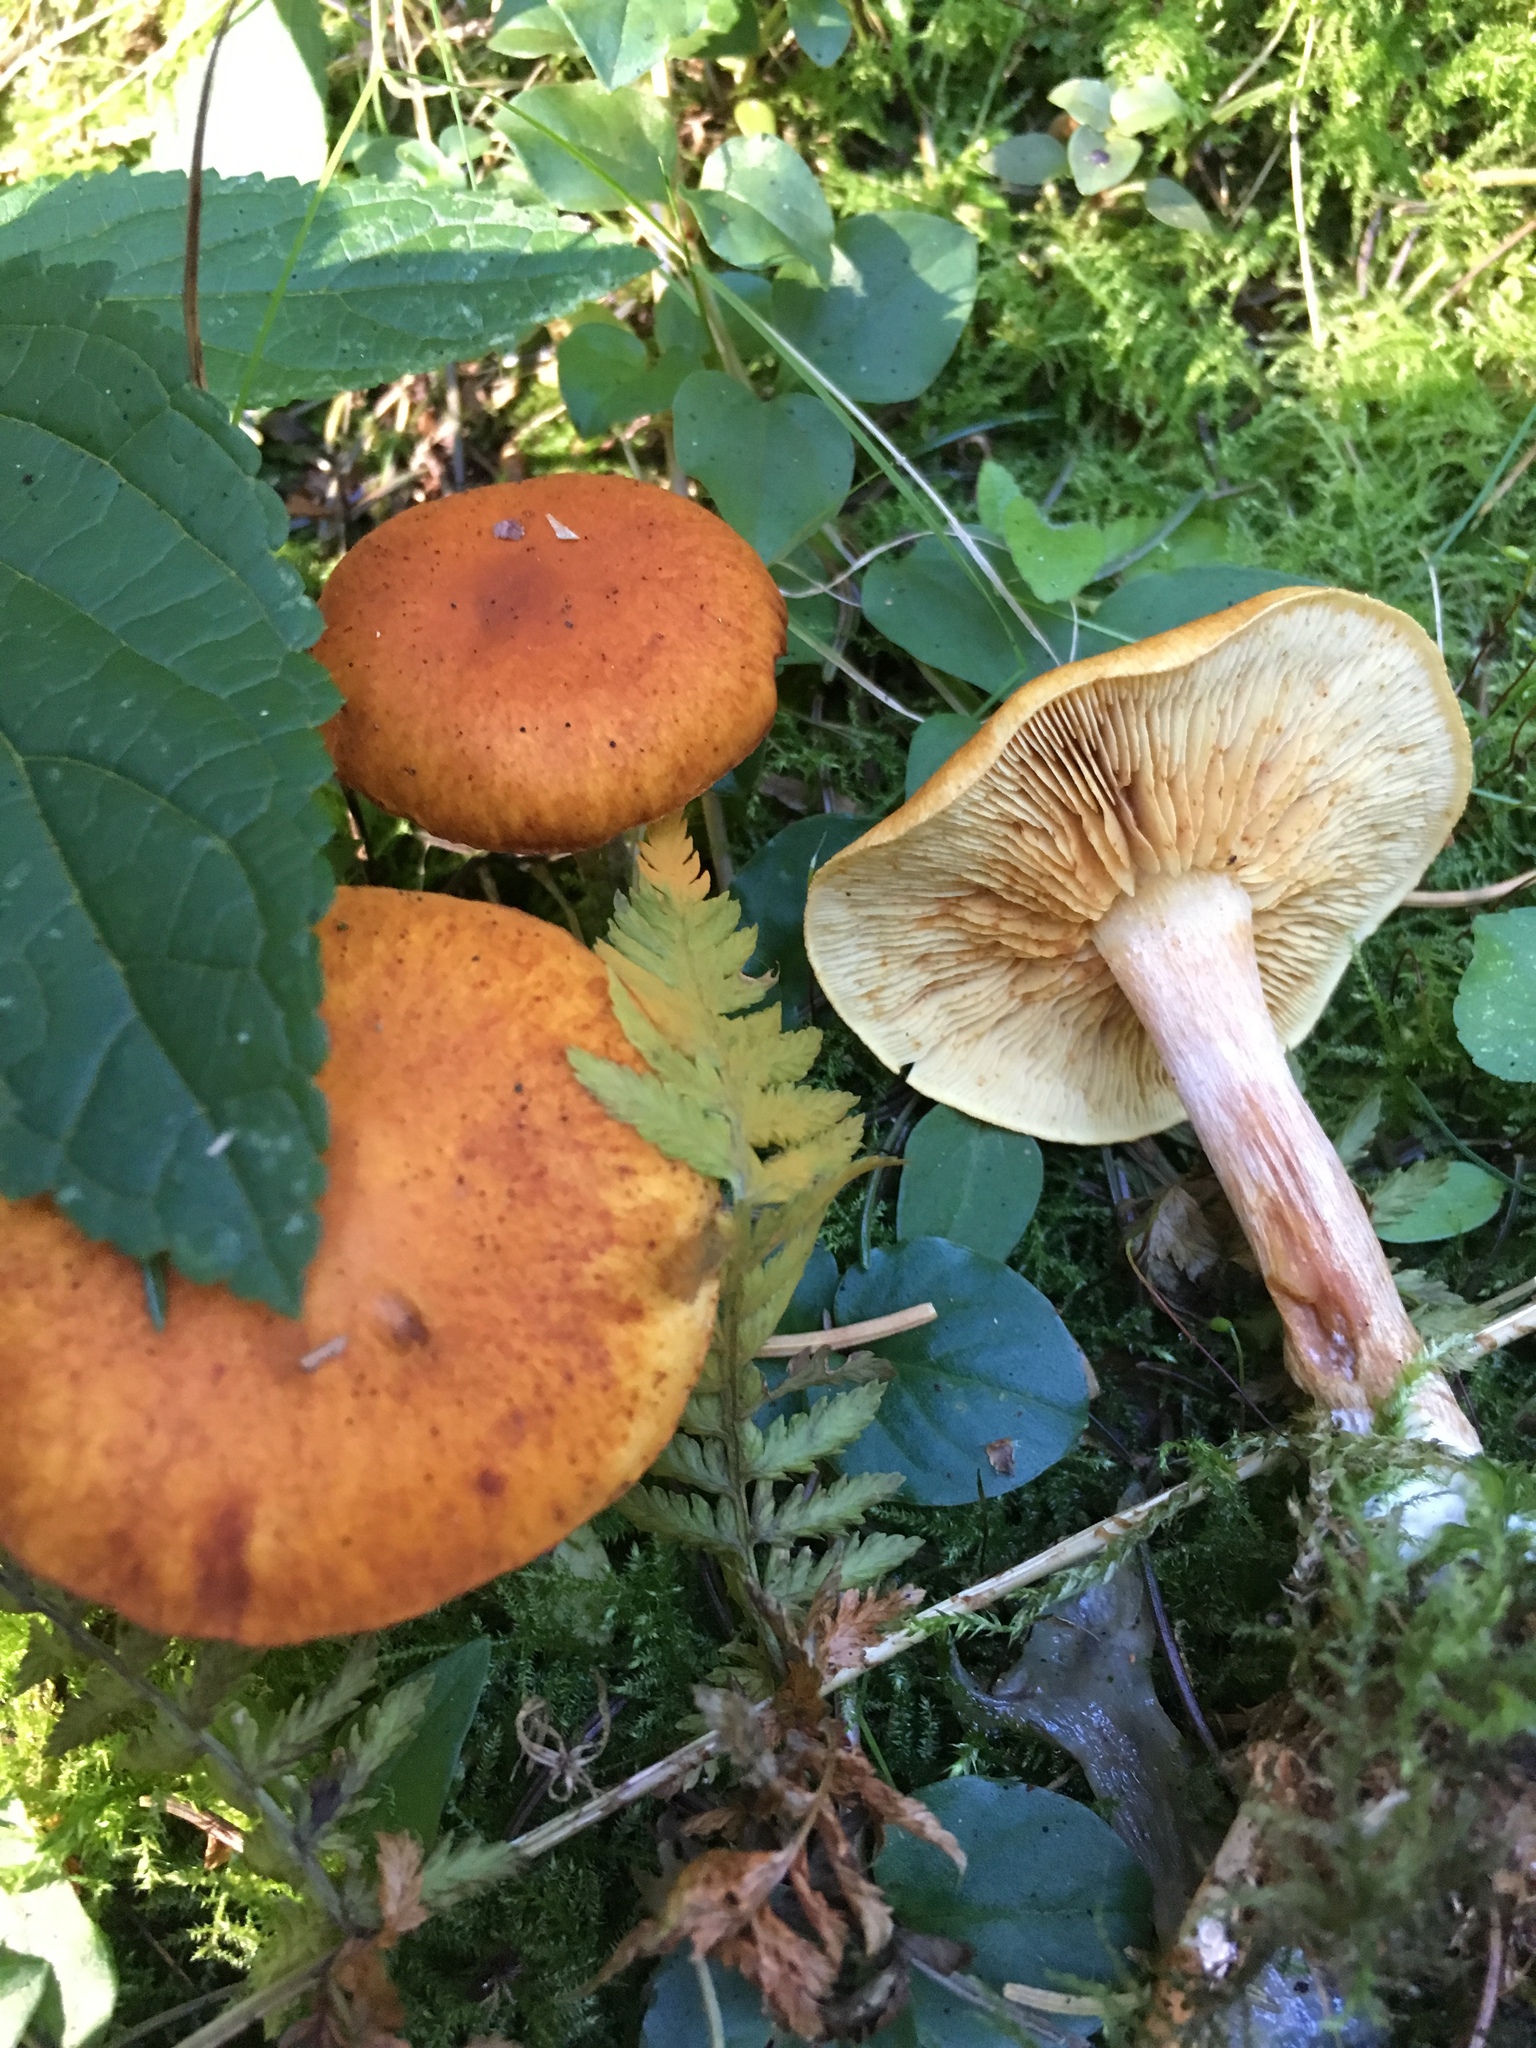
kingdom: Fungi
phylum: Basidiomycota
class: Agaricomycetes
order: Agaricales
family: Hymenogastraceae
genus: Gymnopilus
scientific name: Gymnopilus penetrans
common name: Common rustgill
